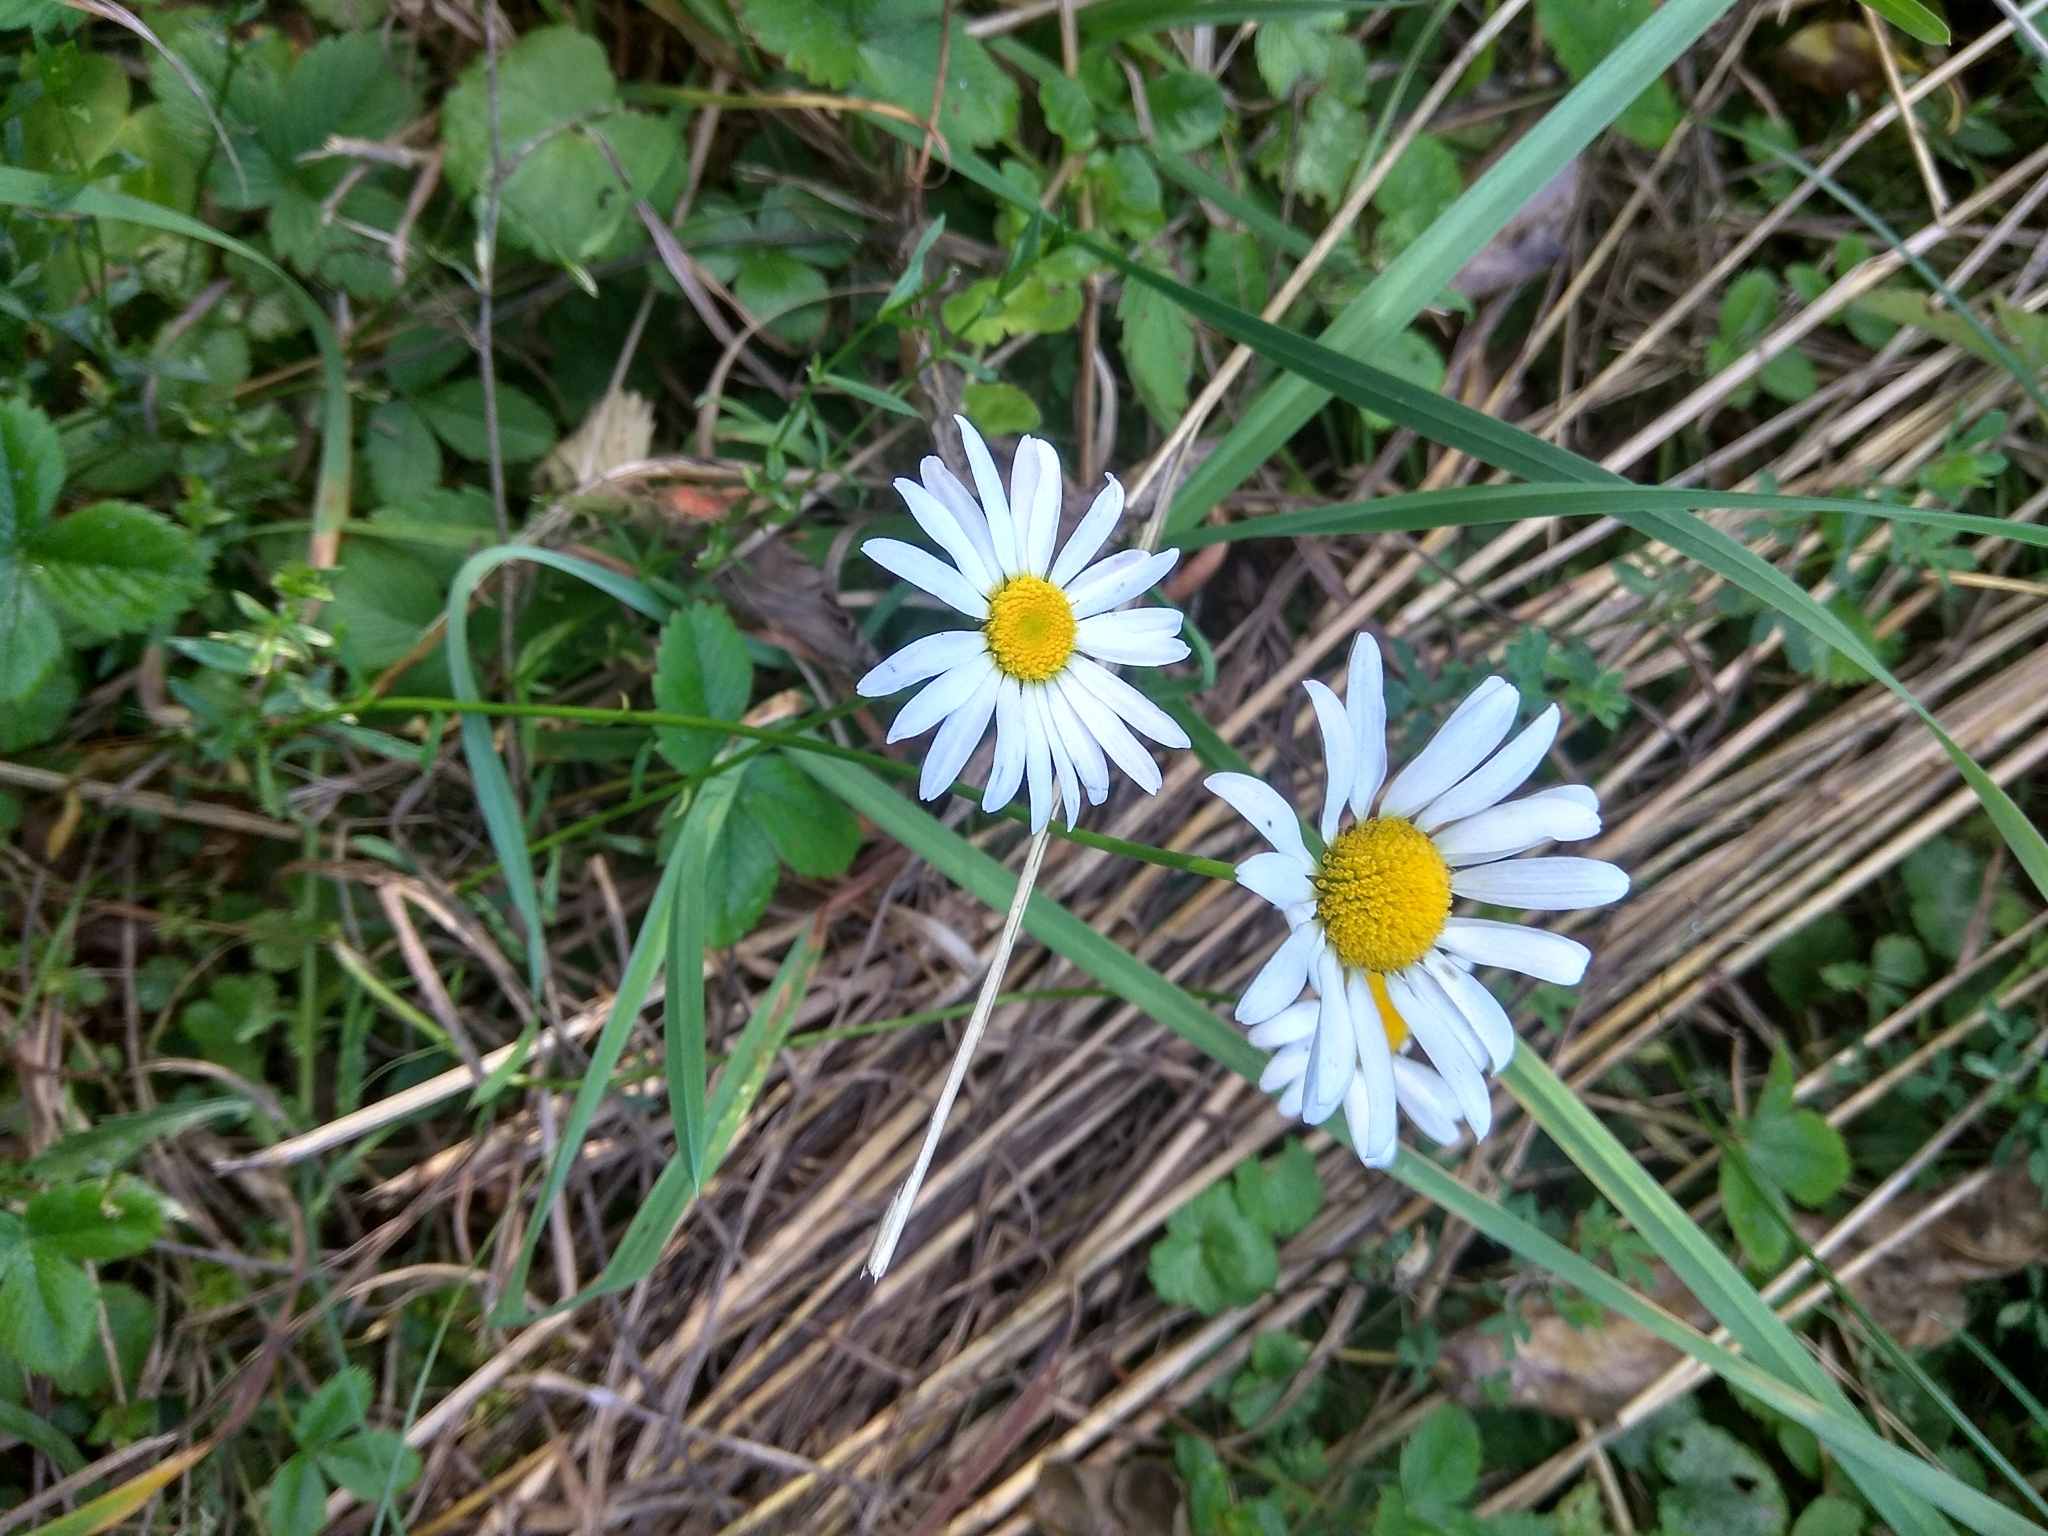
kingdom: Plantae
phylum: Tracheophyta
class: Magnoliopsida
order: Asterales
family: Asteraceae
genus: Leucanthemum
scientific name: Leucanthemum vulgare
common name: Oxeye daisy
